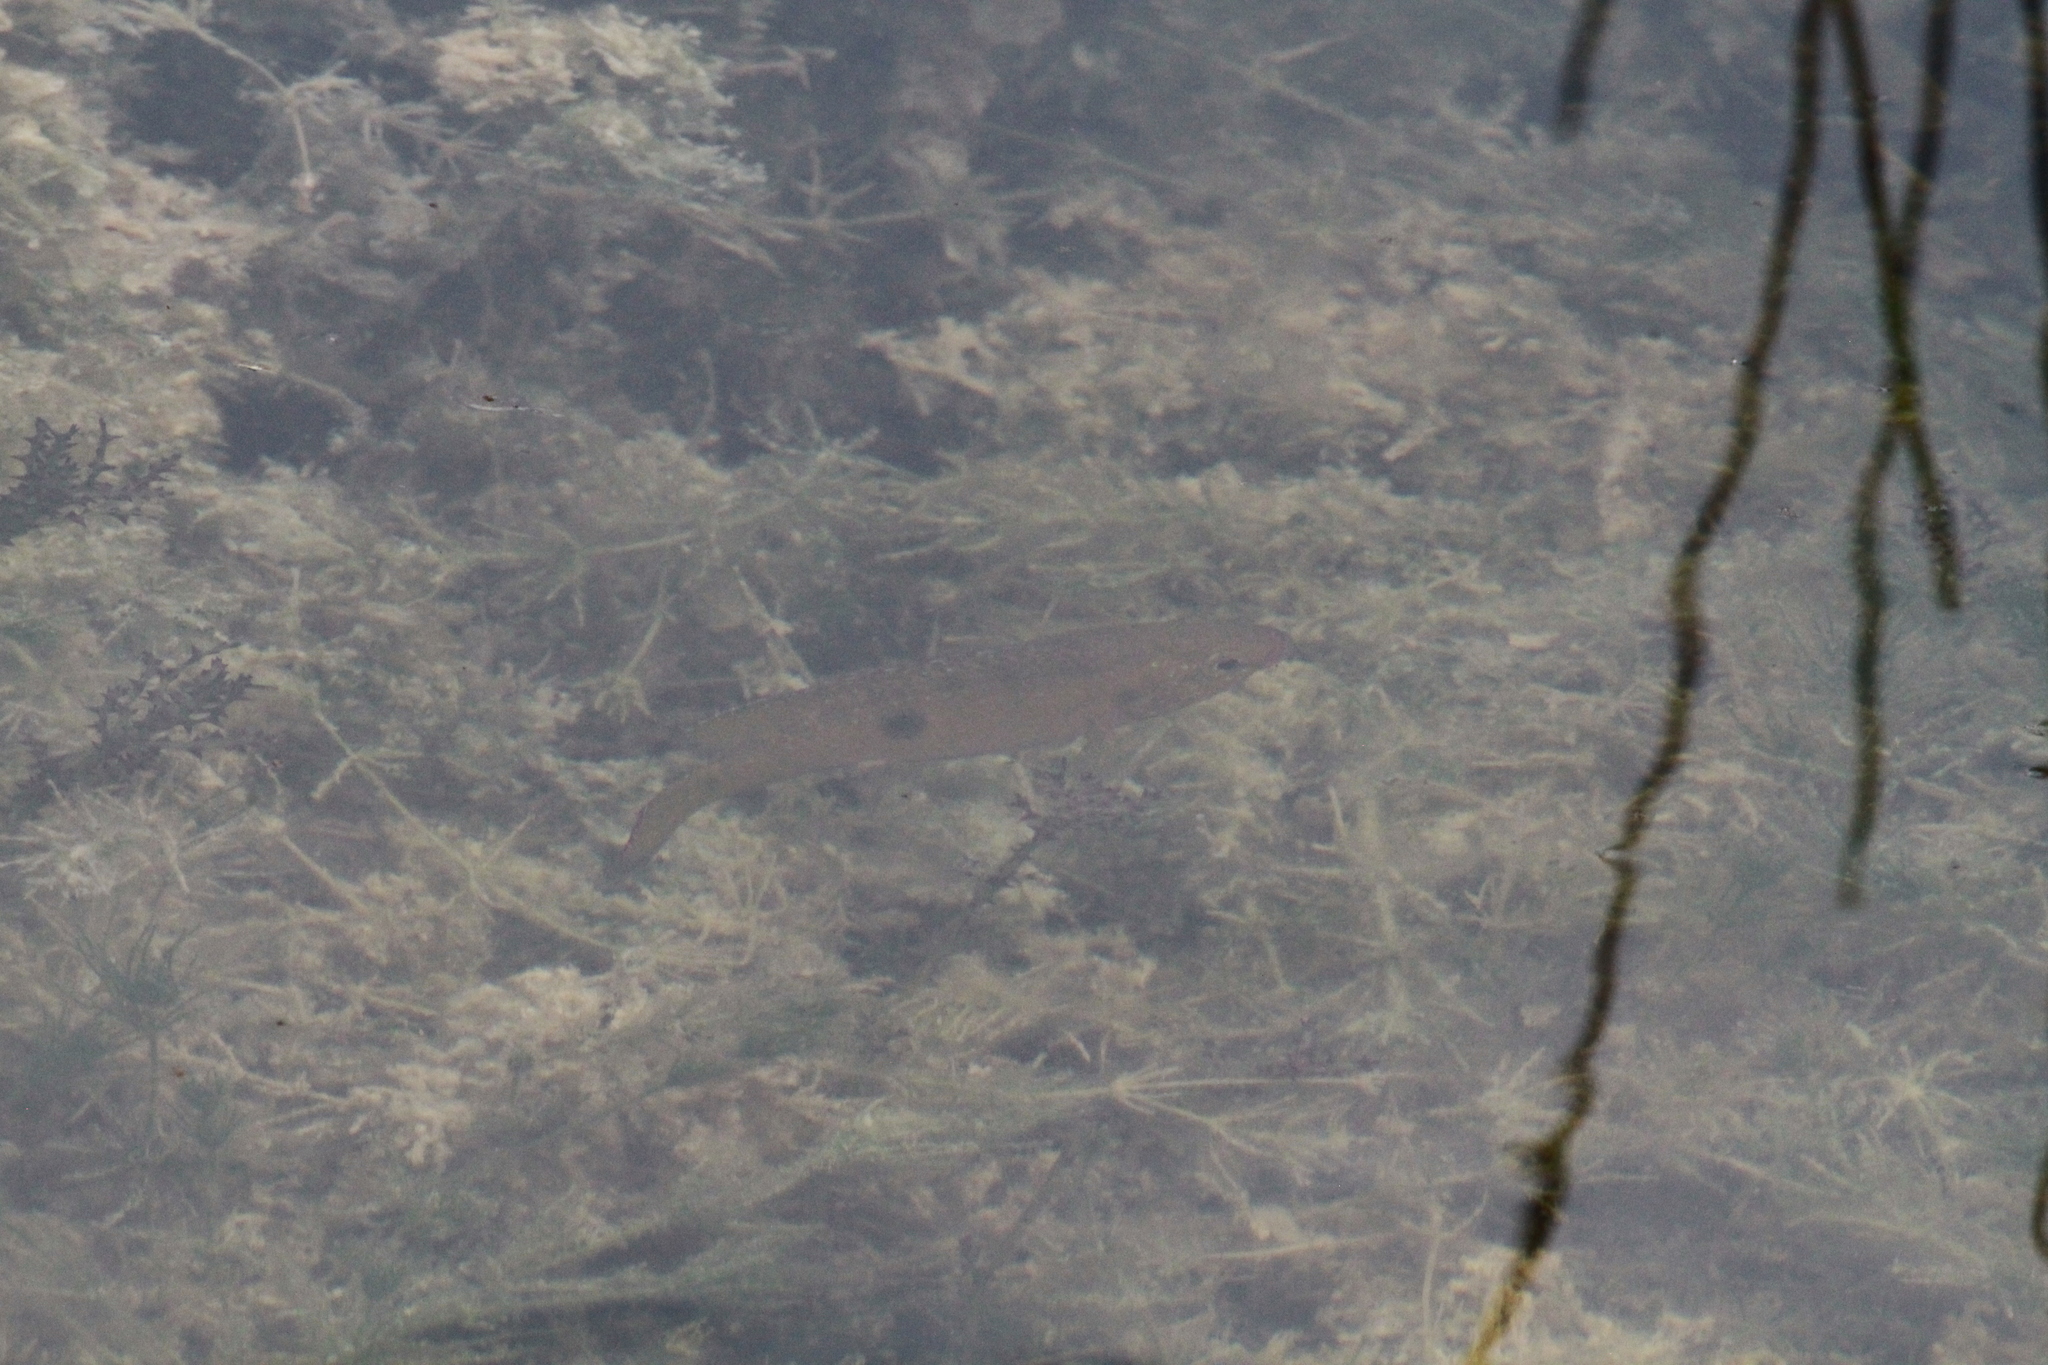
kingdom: Animalia
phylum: Chordata
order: Perciformes
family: Cichlidae
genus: Rubricatochromis
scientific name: Rubricatochromis
